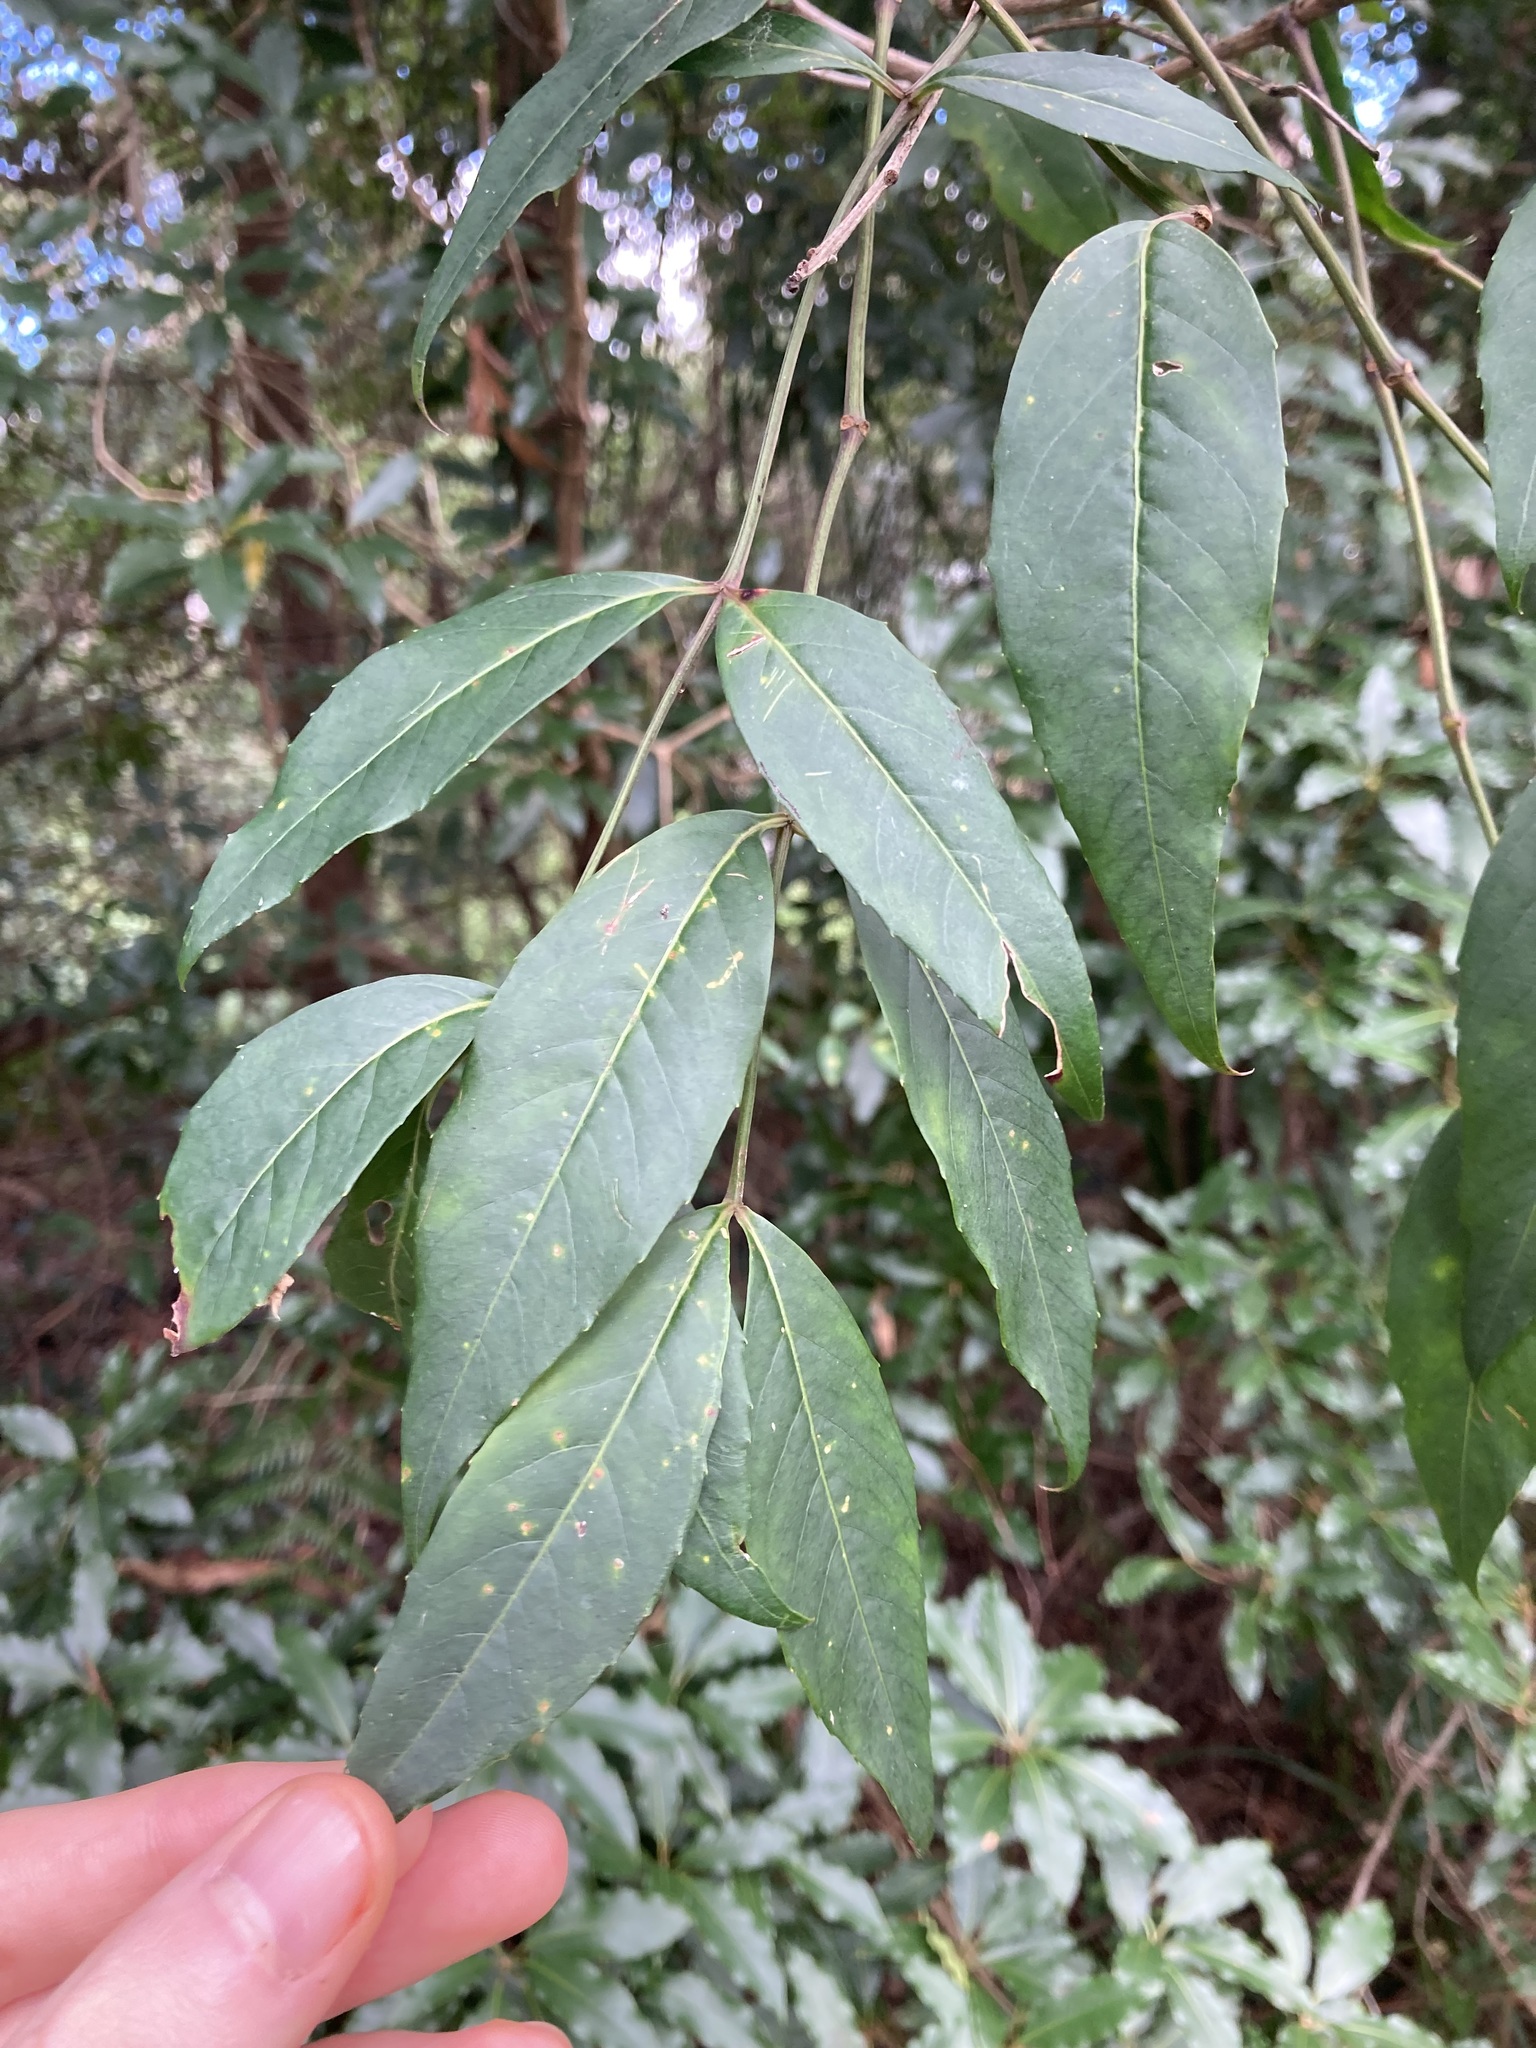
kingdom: Plantae
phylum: Tracheophyta
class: Magnoliopsida
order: Apiales
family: Araliaceae
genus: Polyscias
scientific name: Polyscias sambucifolia
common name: Elderberry-ash
